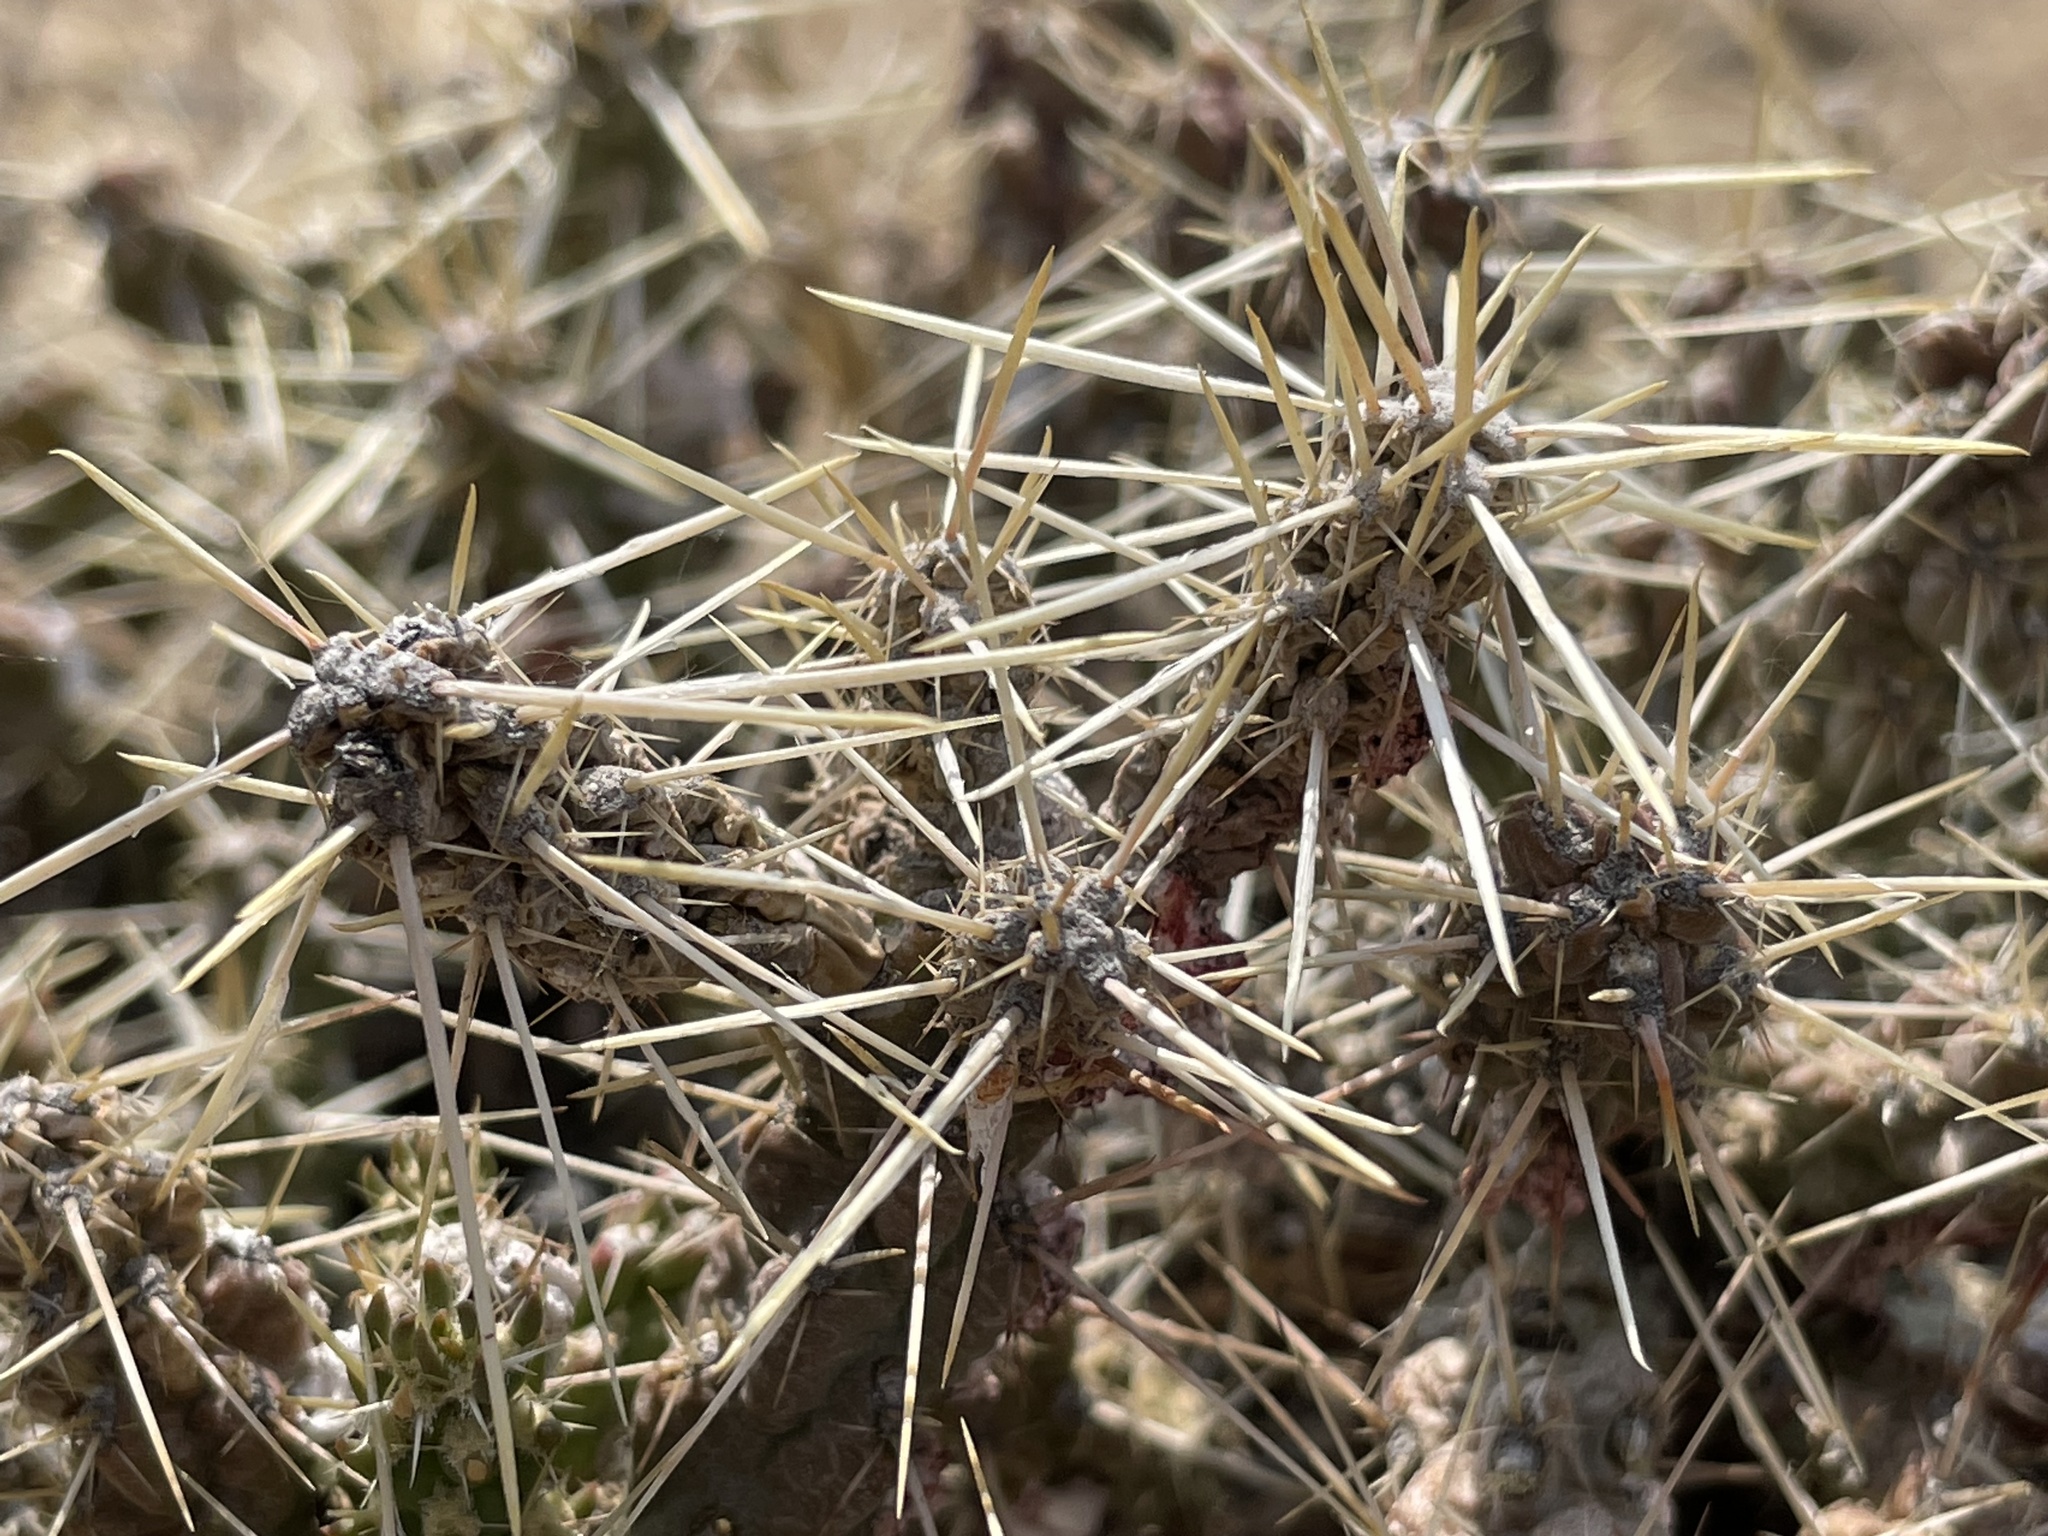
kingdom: Plantae
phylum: Tracheophyta
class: Magnoliopsida
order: Caryophyllales
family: Cactaceae
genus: Cylindropuntia
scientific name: Cylindropuntia whipplei
